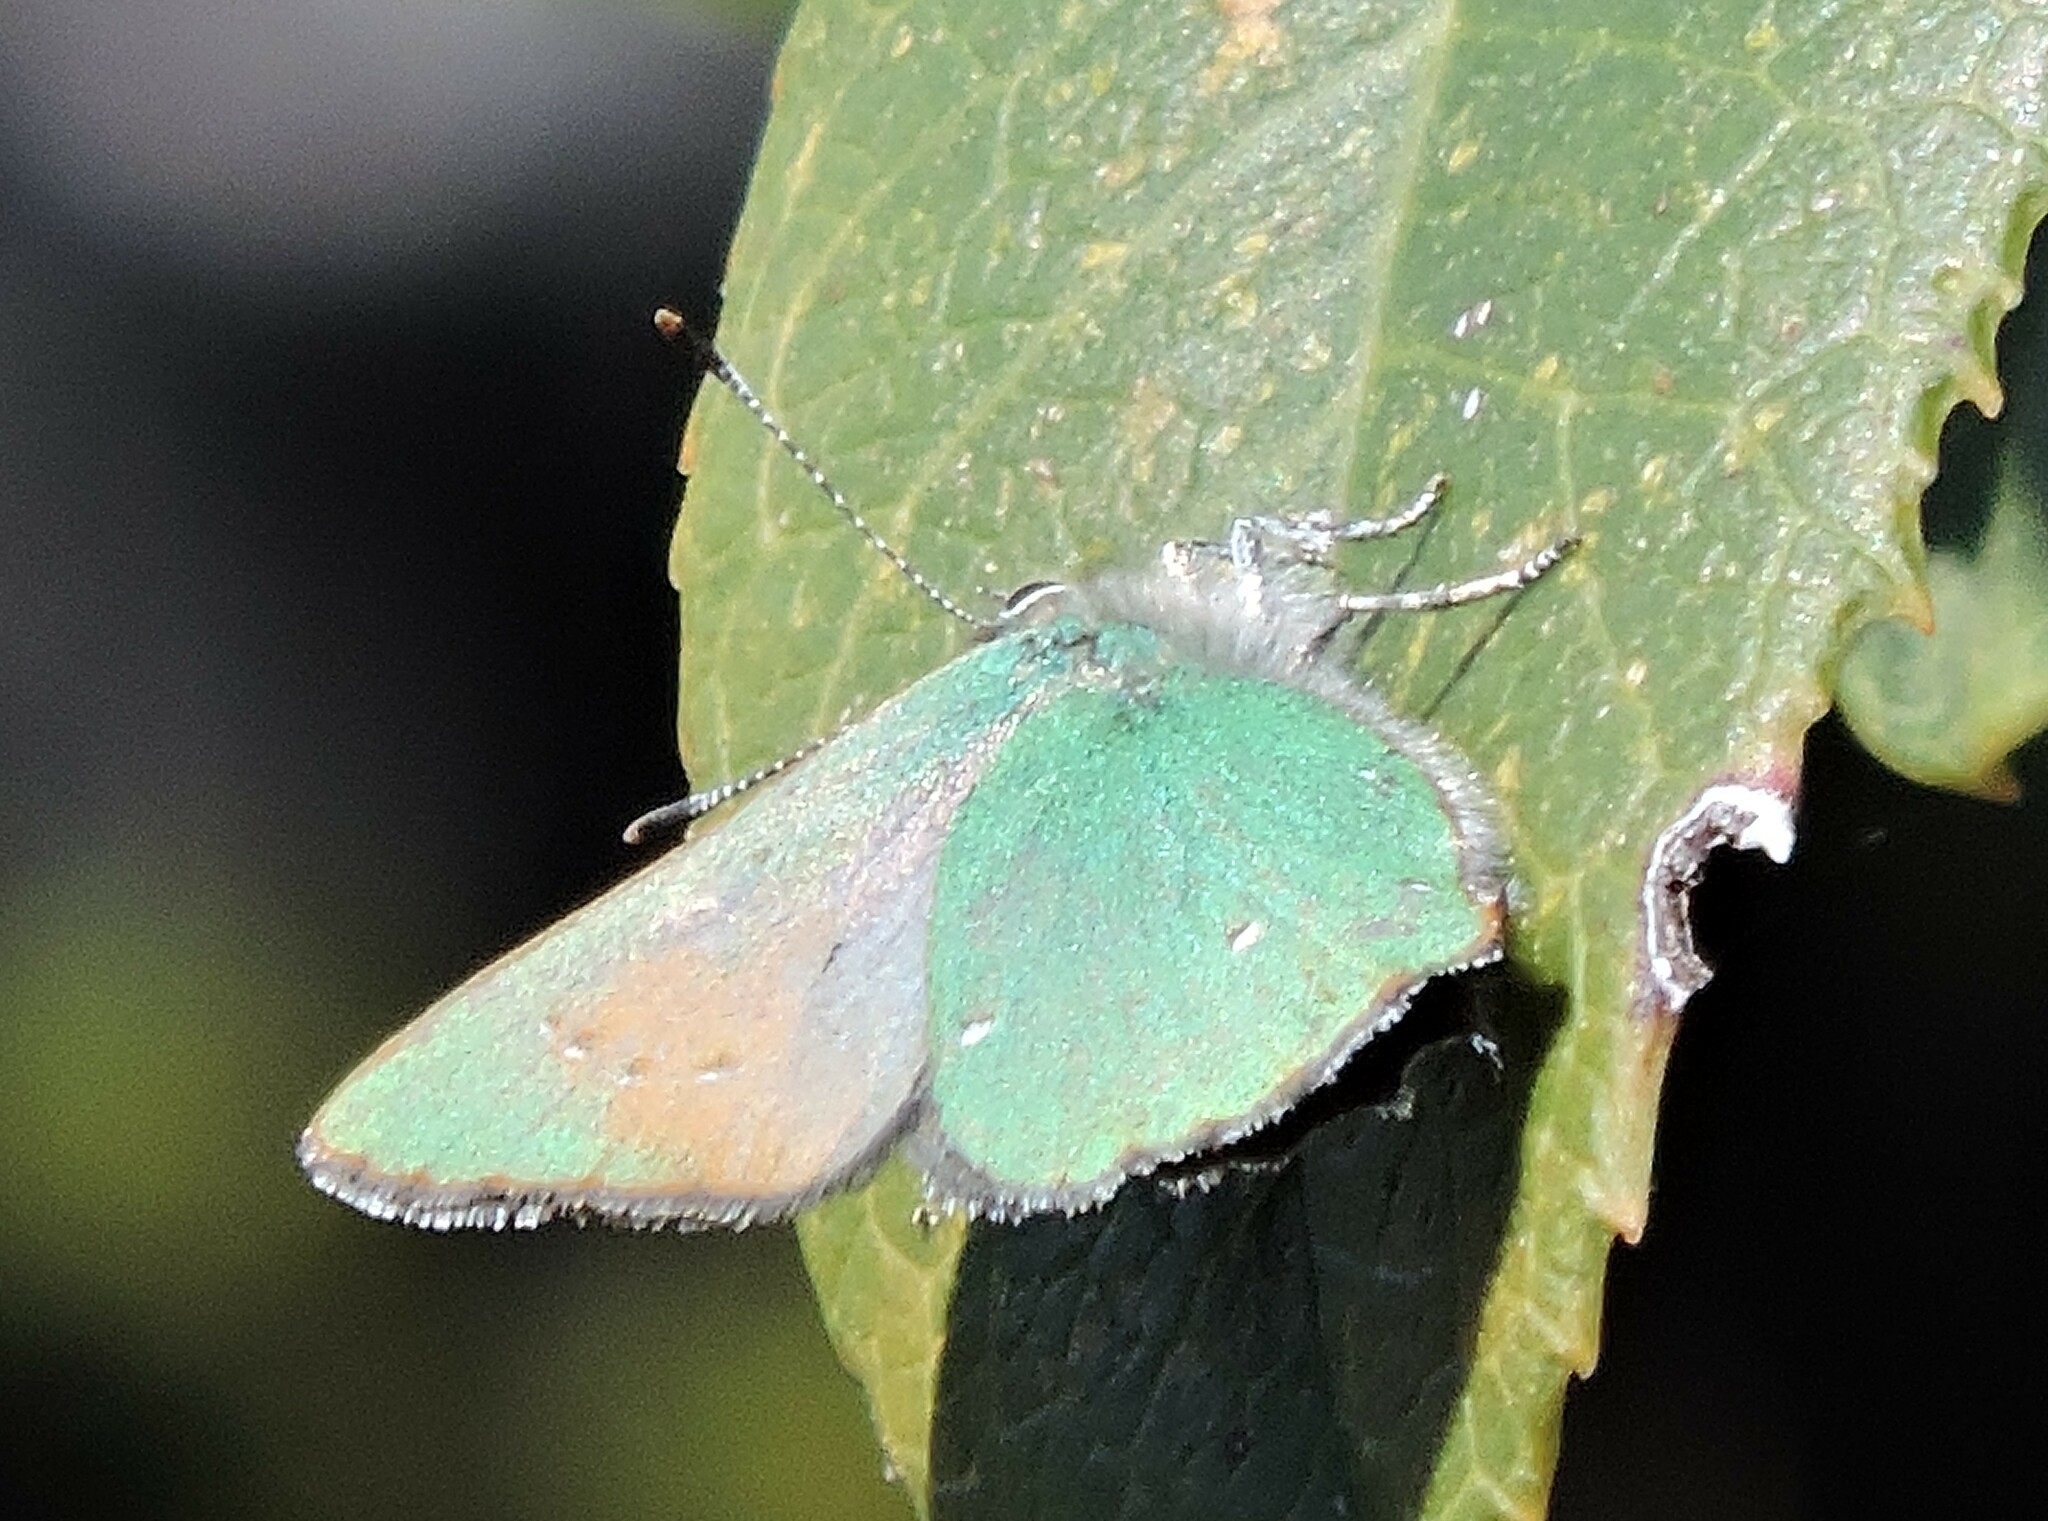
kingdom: Animalia
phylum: Arthropoda
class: Insecta
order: Lepidoptera
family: Lycaenidae
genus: Callophrys
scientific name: Callophrys dumetorum
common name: Bramble hairstreak
